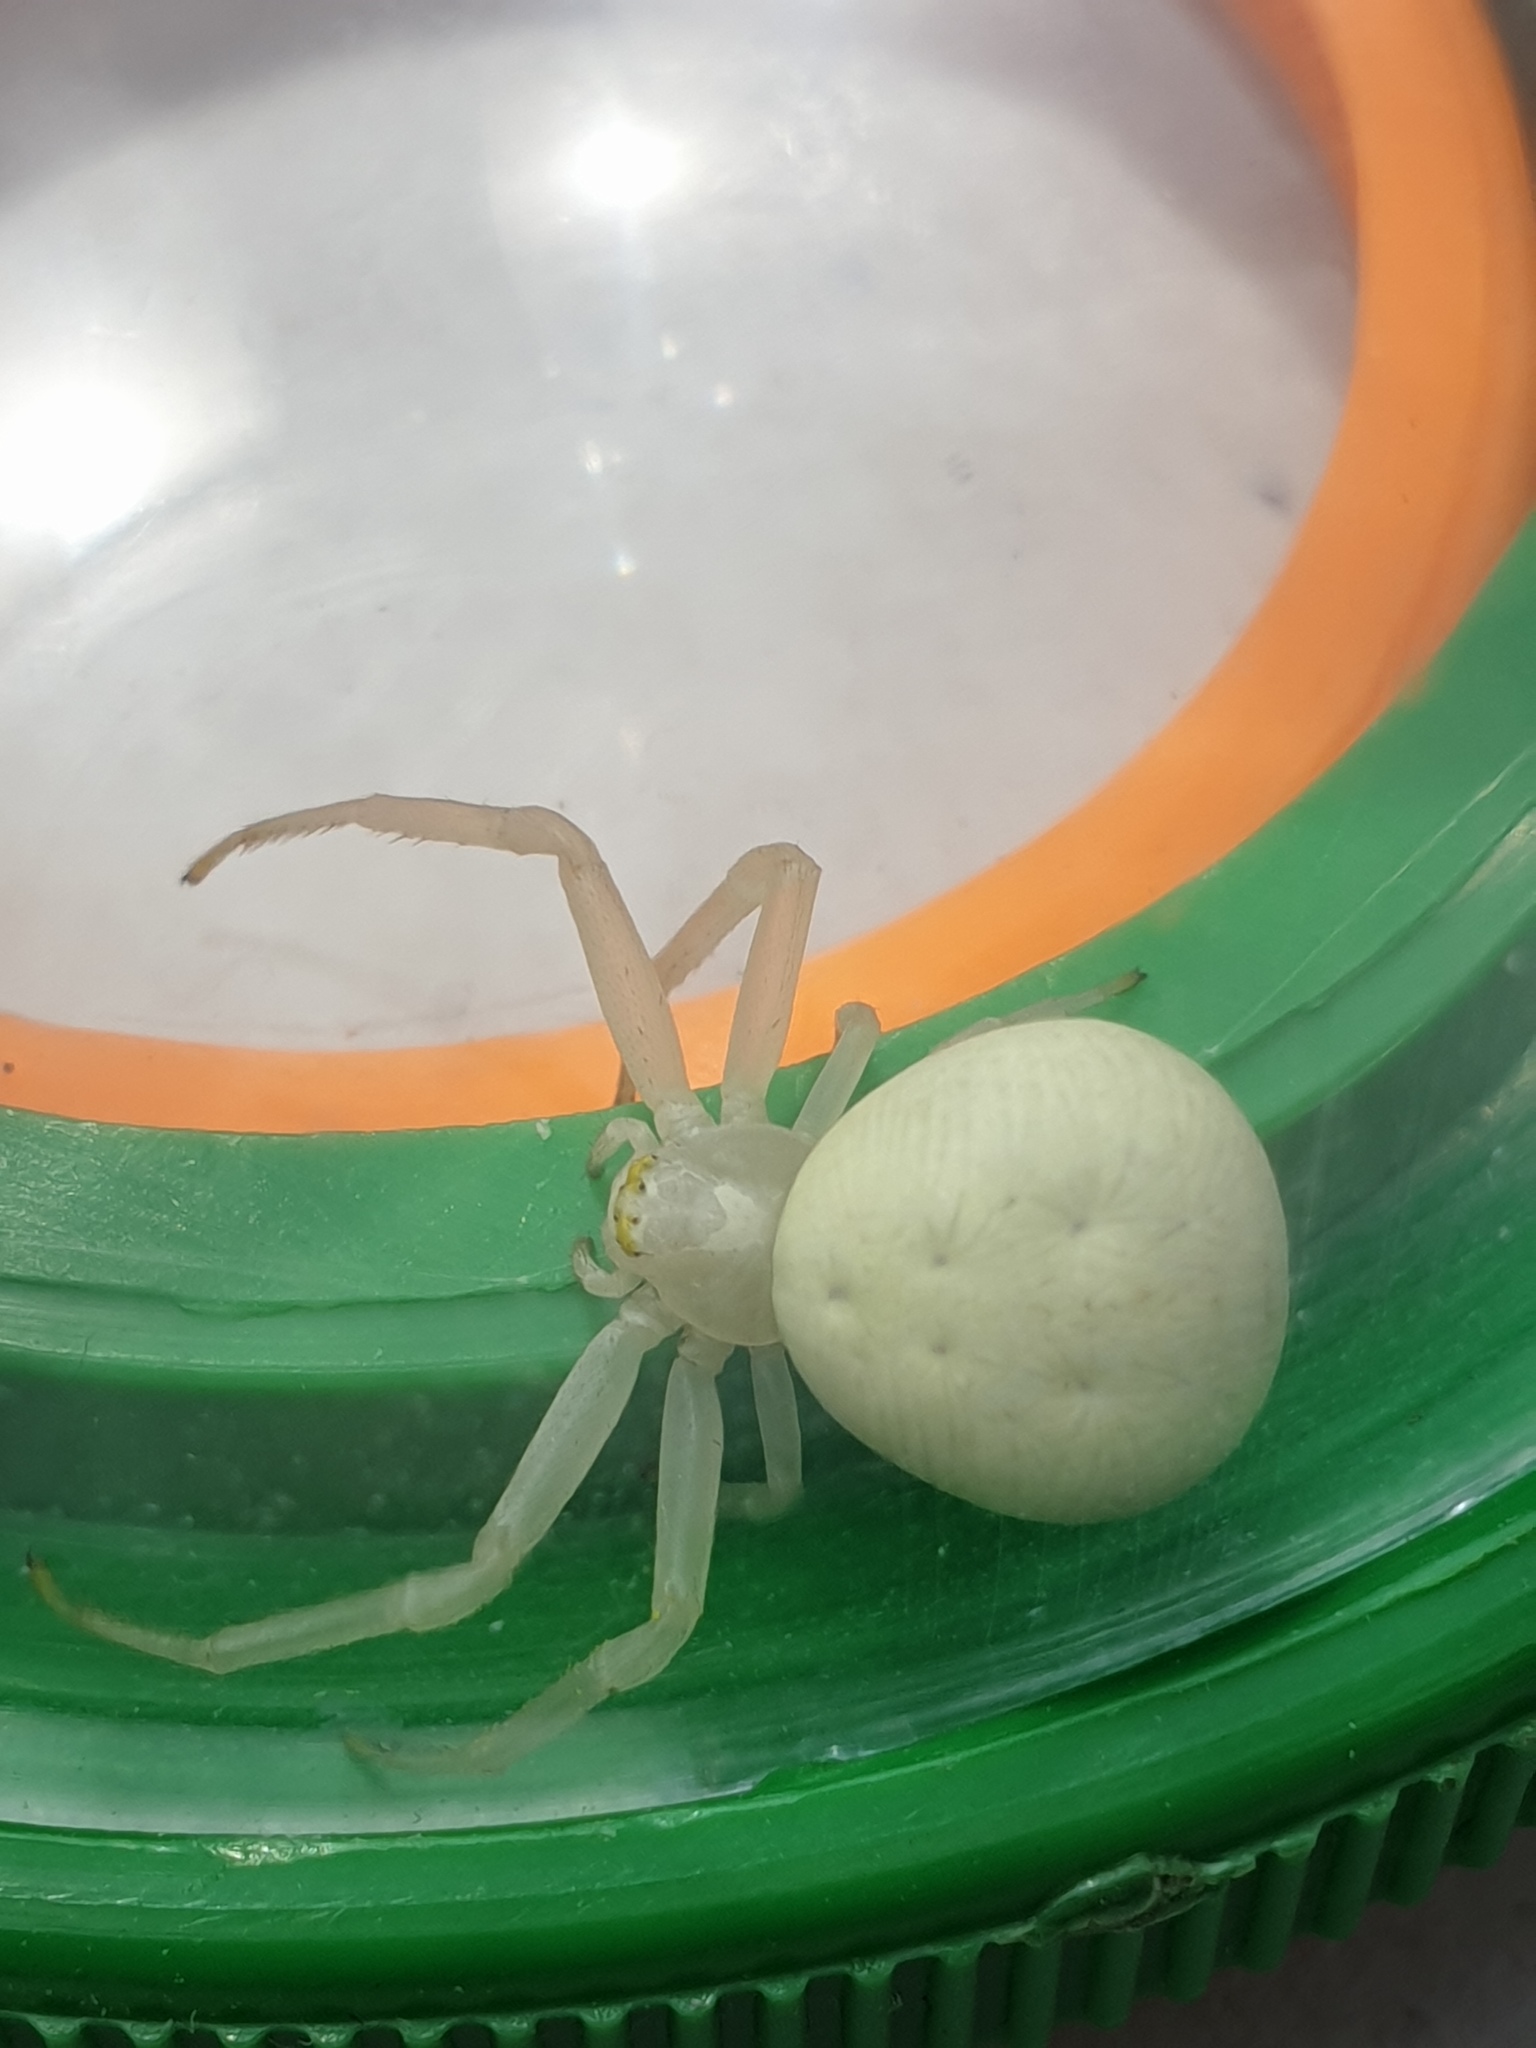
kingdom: Animalia
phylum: Arthropoda
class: Arachnida
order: Araneae
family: Thomisidae
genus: Misumena
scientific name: Misumena vatia
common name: Goldenrod crab spider
